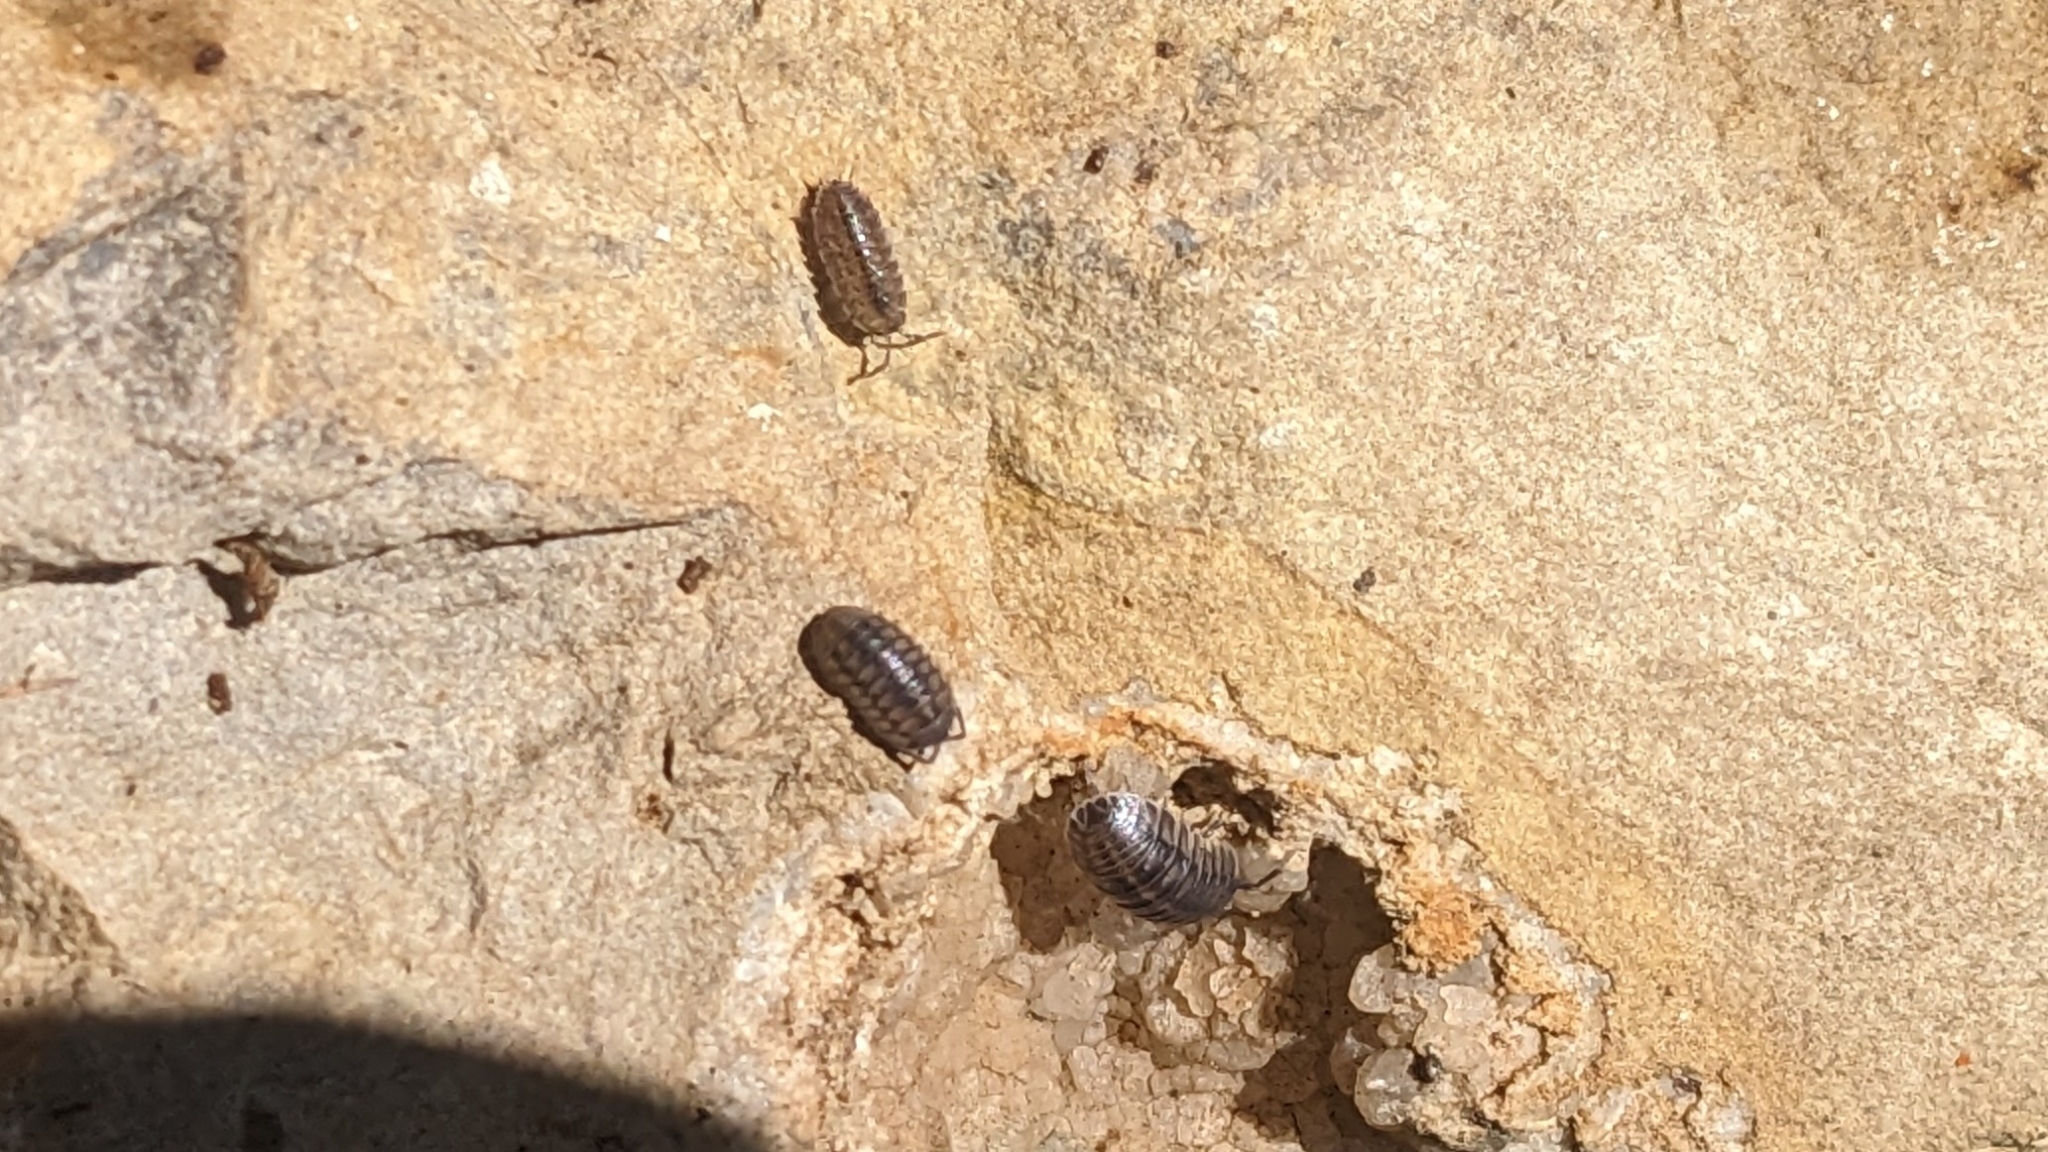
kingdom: Animalia
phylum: Arthropoda
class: Malacostraca
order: Isopoda
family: Armadillidiidae
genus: Armadillidium
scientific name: Armadillidium nasatum
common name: Isopod
